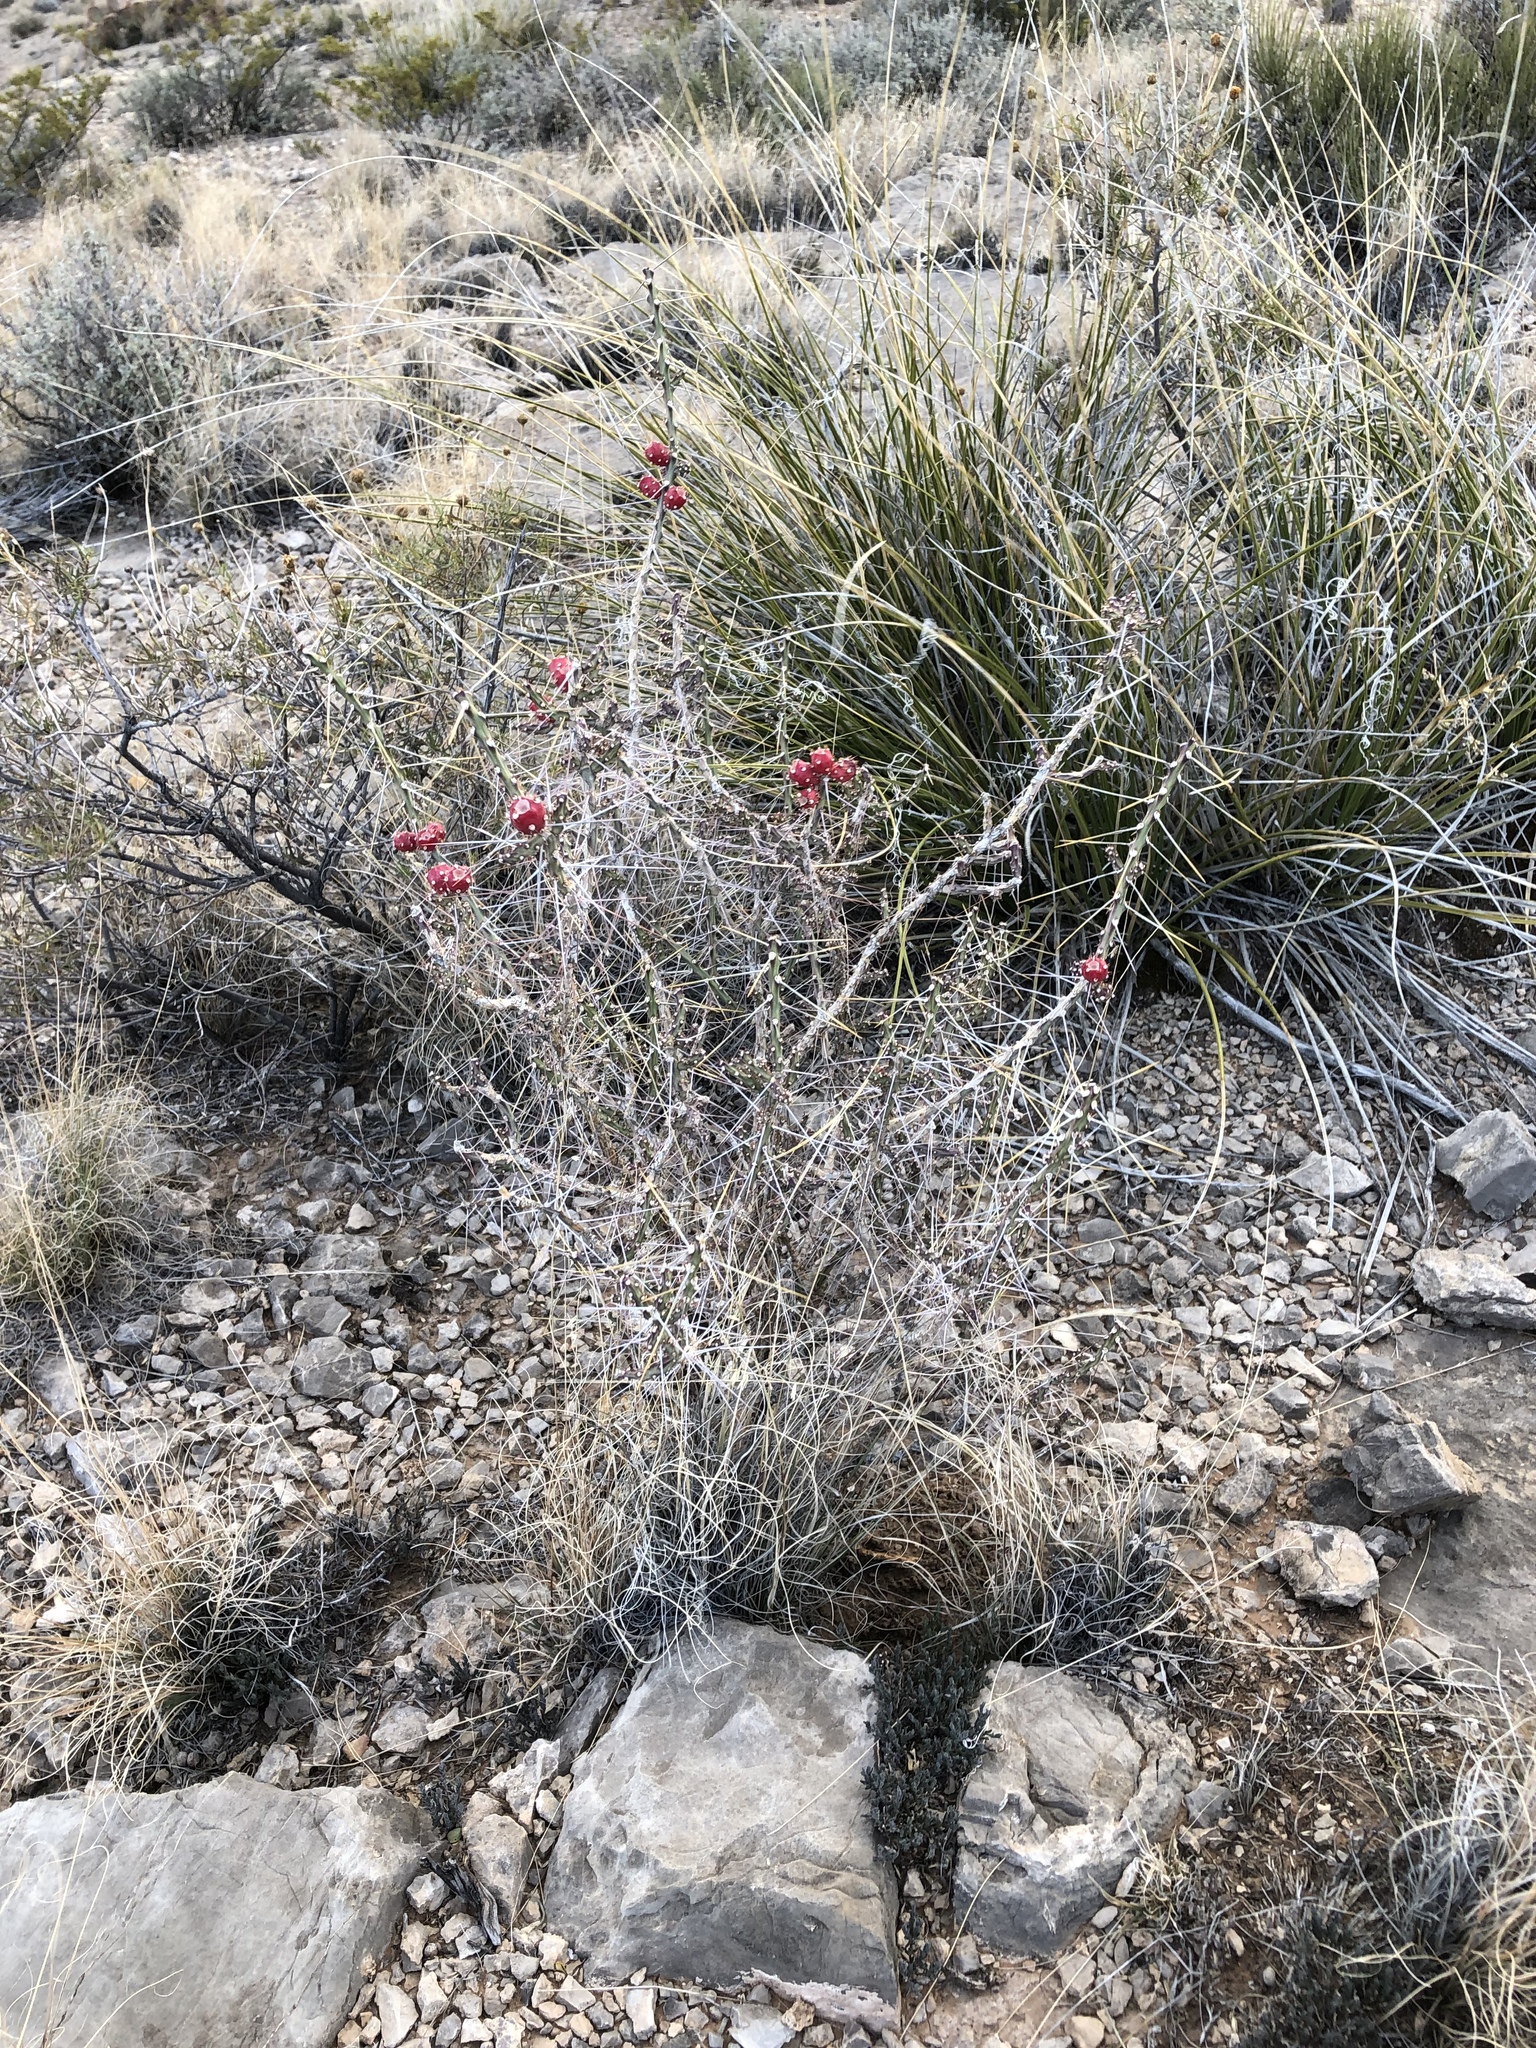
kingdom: Plantae
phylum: Tracheophyta
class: Magnoliopsida
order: Caryophyllales
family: Cactaceae
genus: Cylindropuntia
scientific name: Cylindropuntia leptocaulis
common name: Christmas cactus
